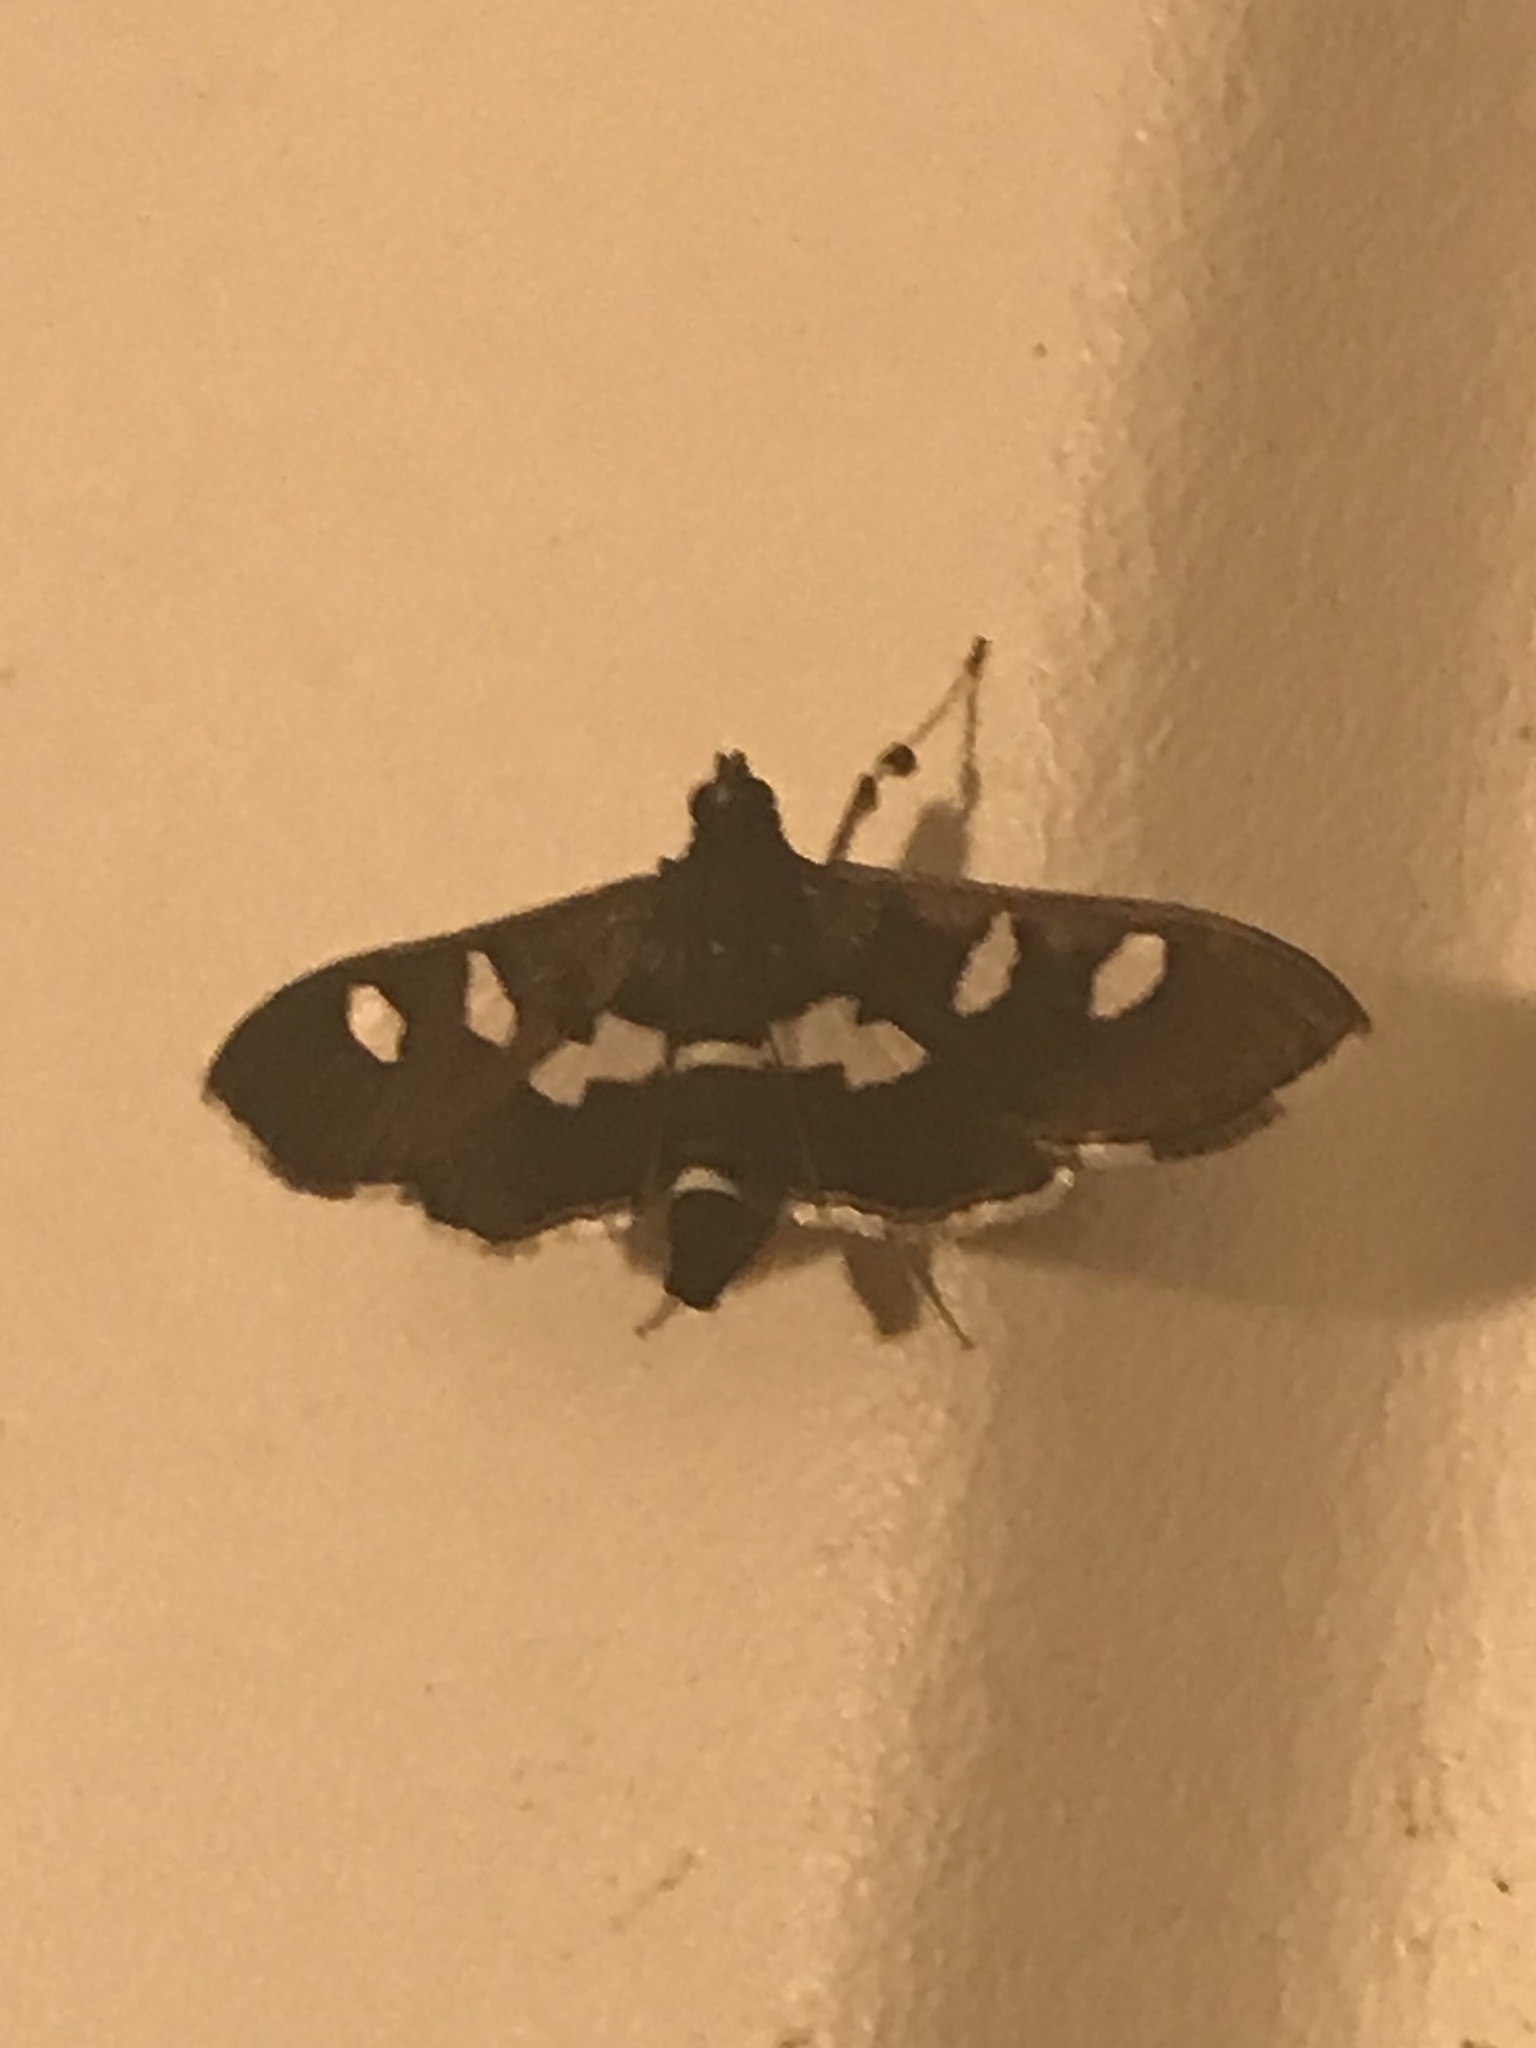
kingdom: Animalia
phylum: Arthropoda
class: Insecta
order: Lepidoptera
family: Crambidae
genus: Desmia
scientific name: Desmia
